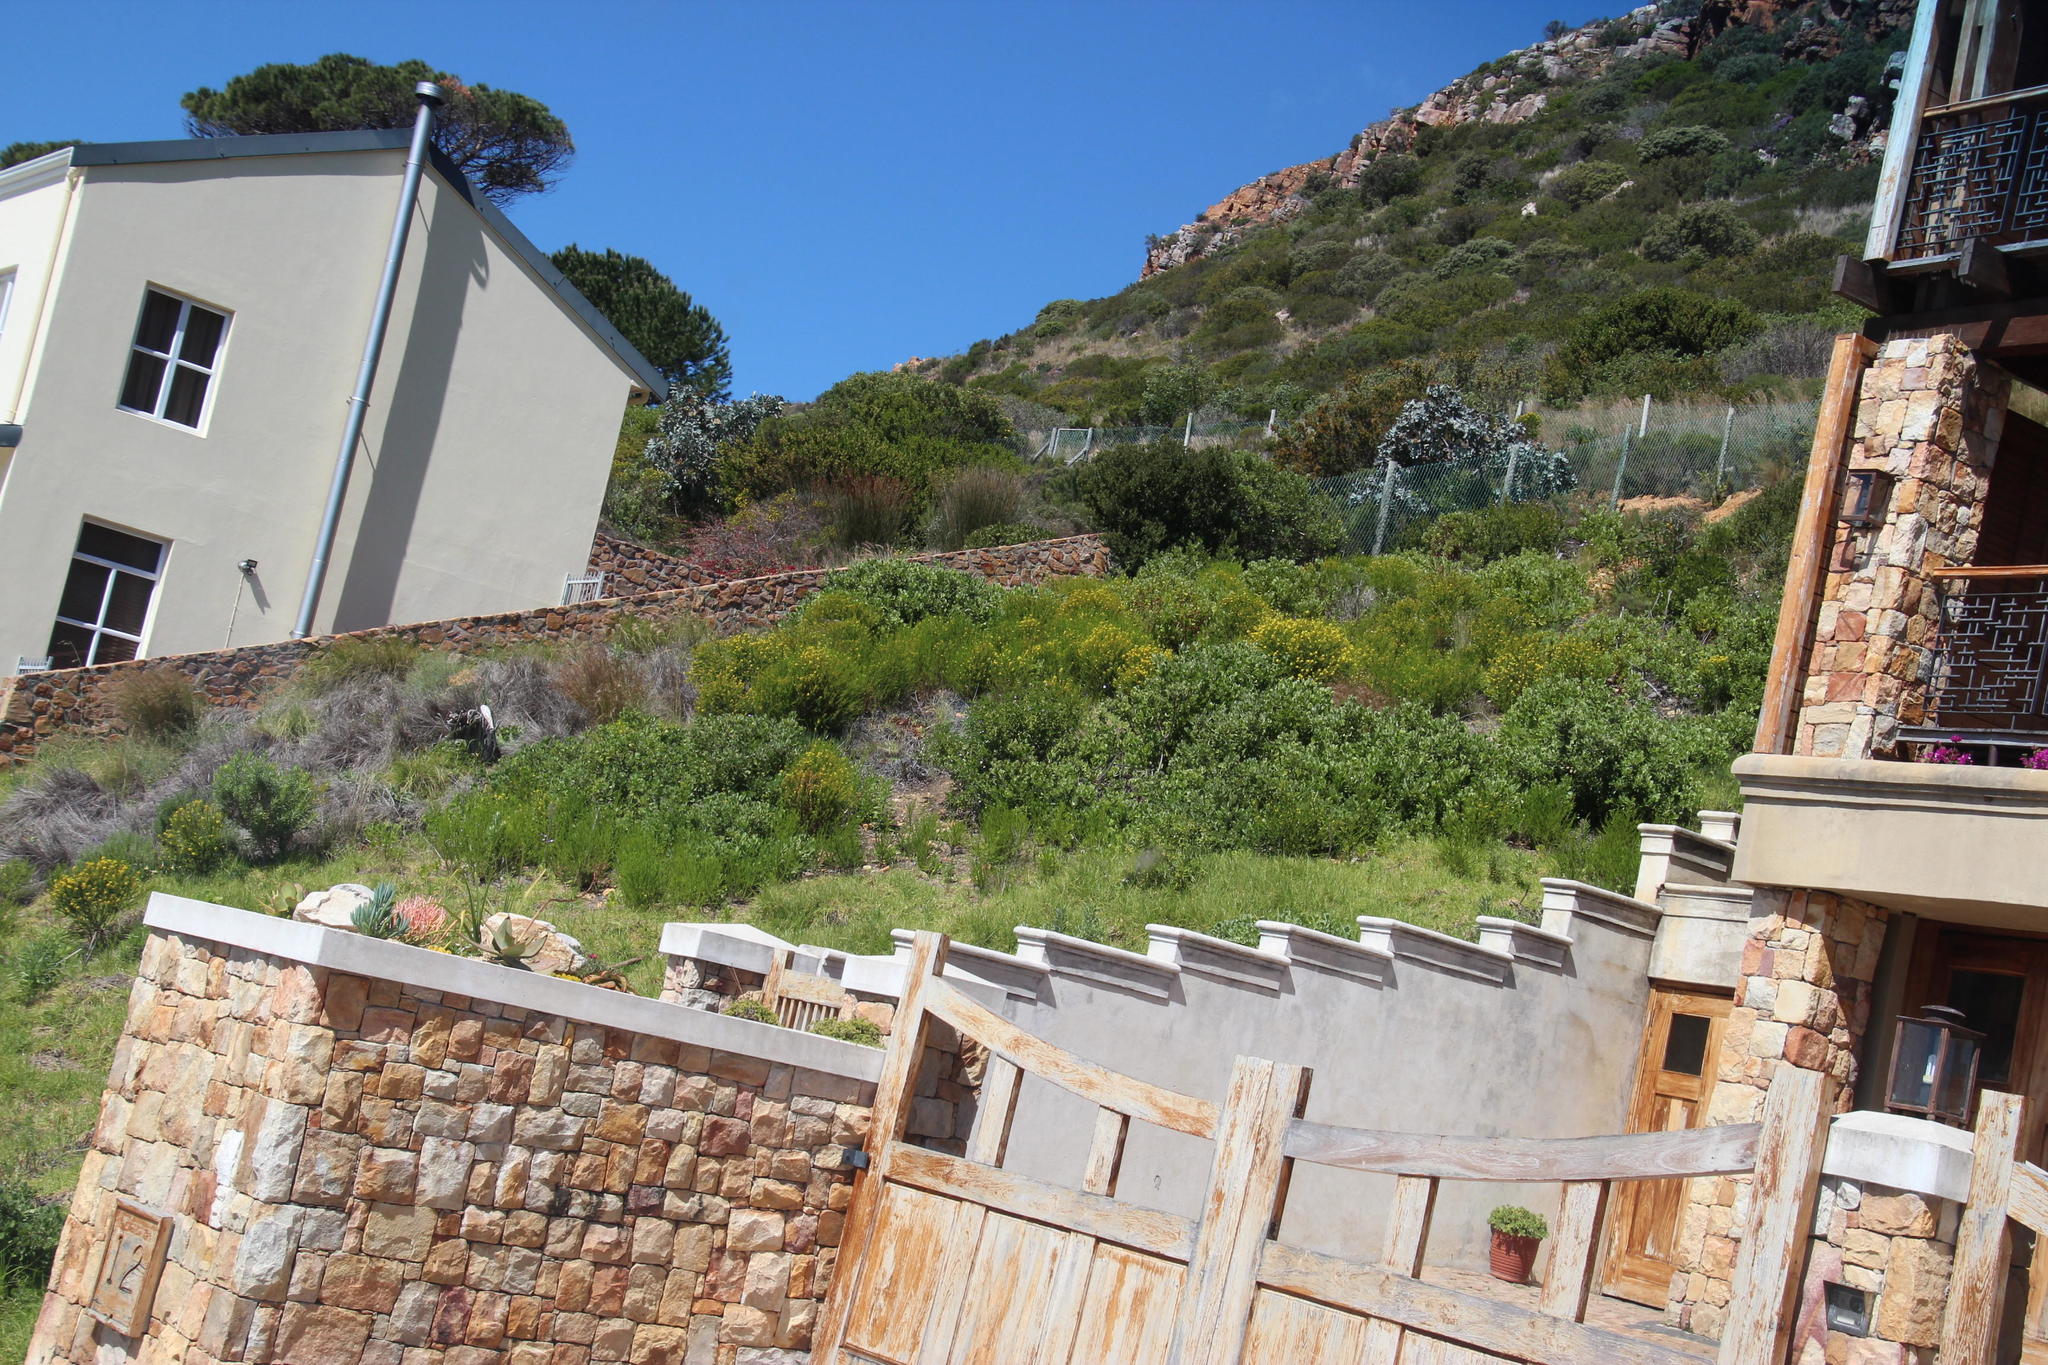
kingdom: Plantae
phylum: Tracheophyta
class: Magnoliopsida
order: Asterales
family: Asteraceae
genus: Euryops
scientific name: Euryops virgineus
